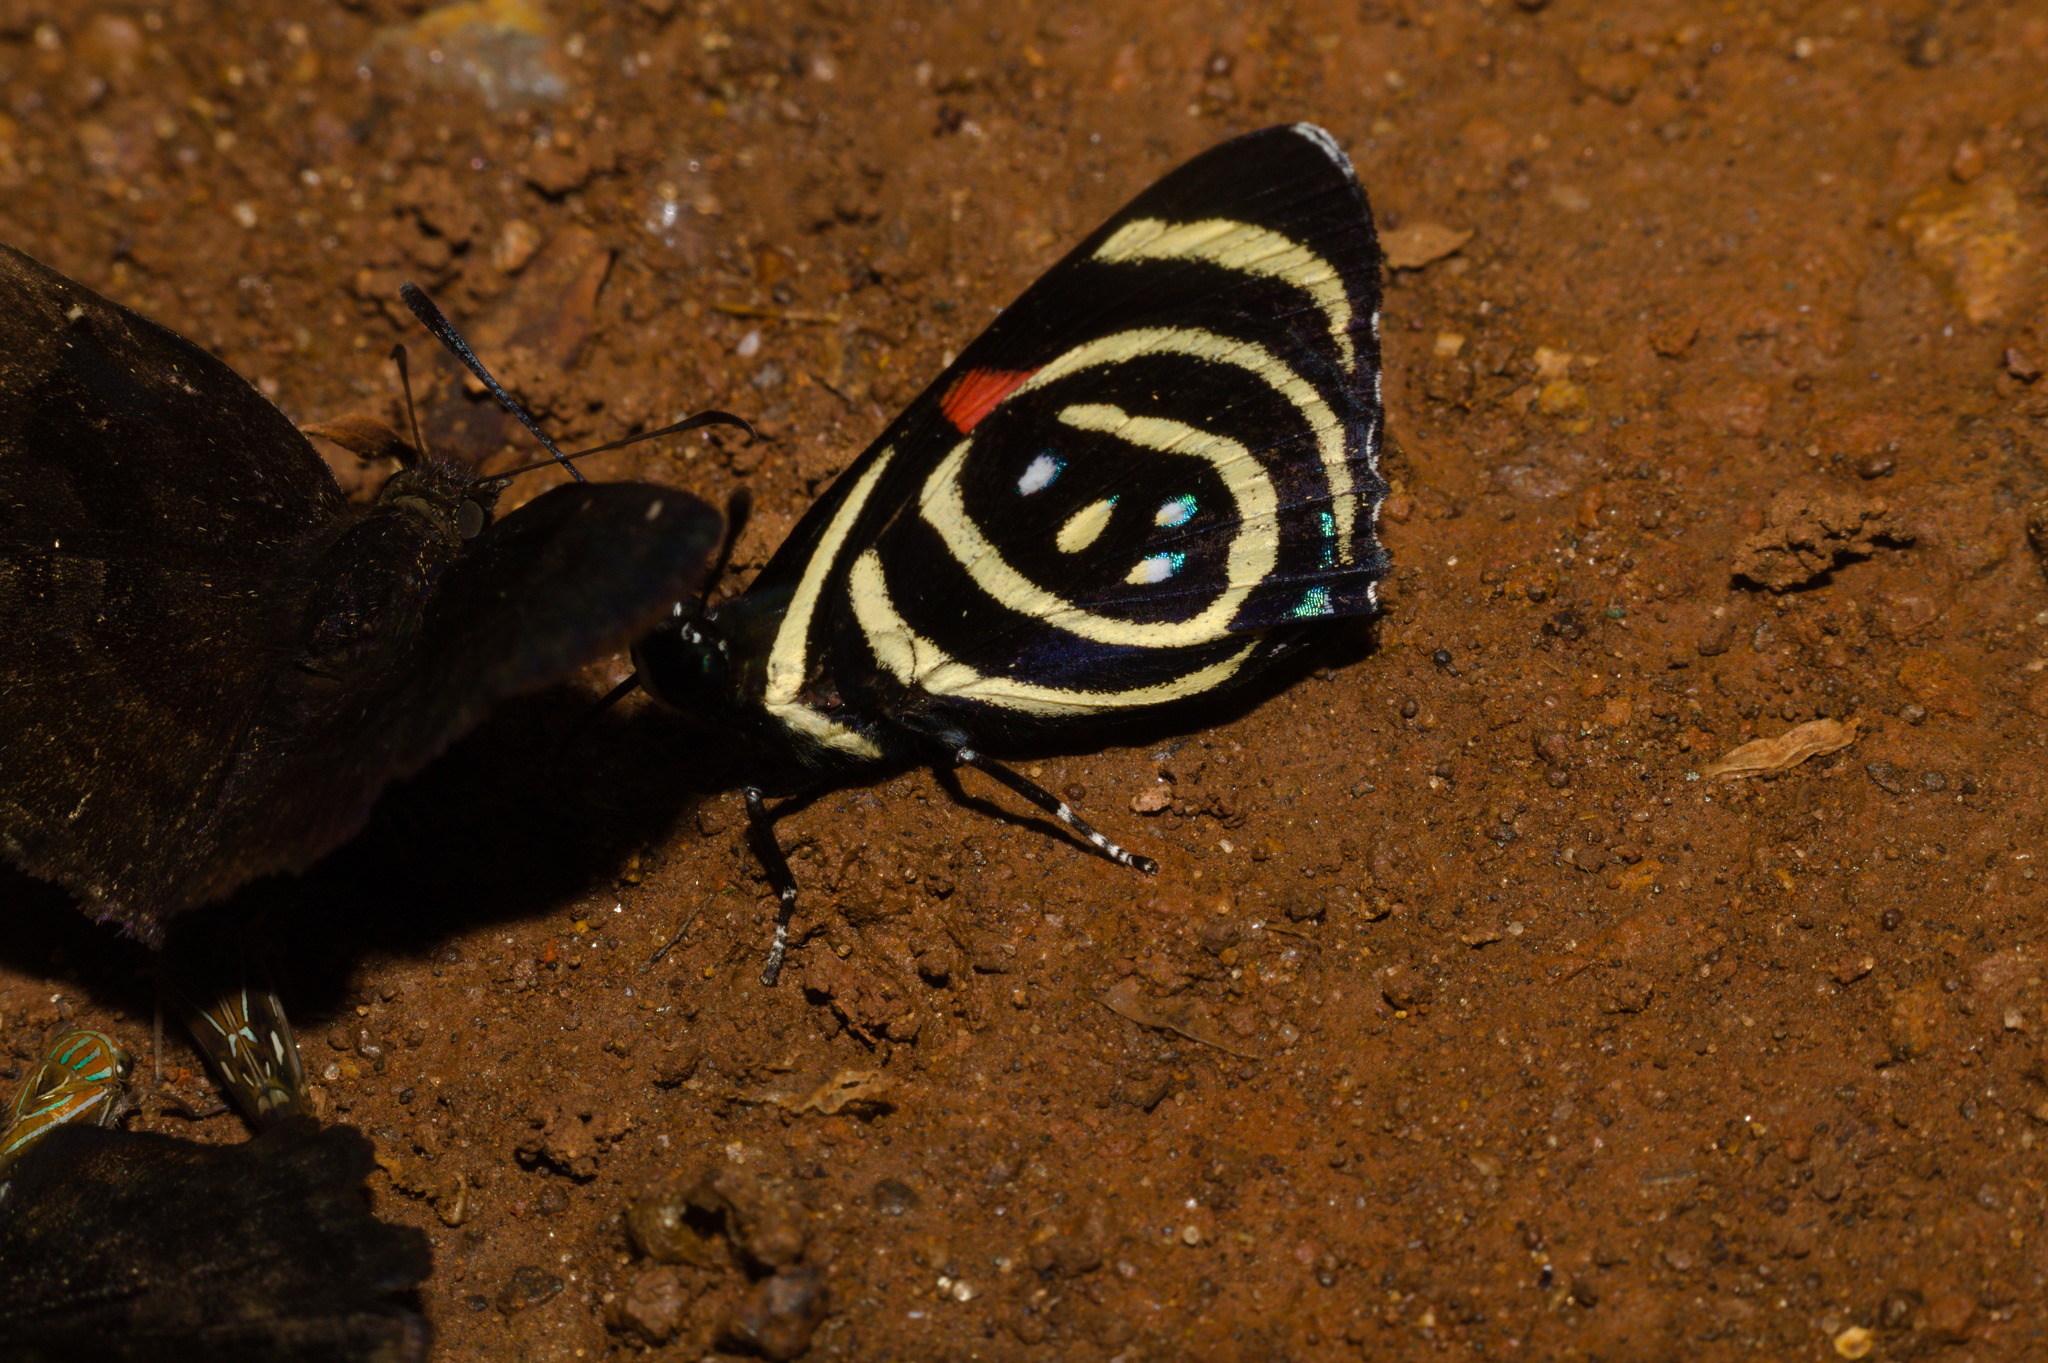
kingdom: Animalia
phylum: Arthropoda
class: Insecta
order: Lepidoptera
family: Nymphalidae
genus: Catagramma
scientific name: Catagramma Callicore hydaspes
